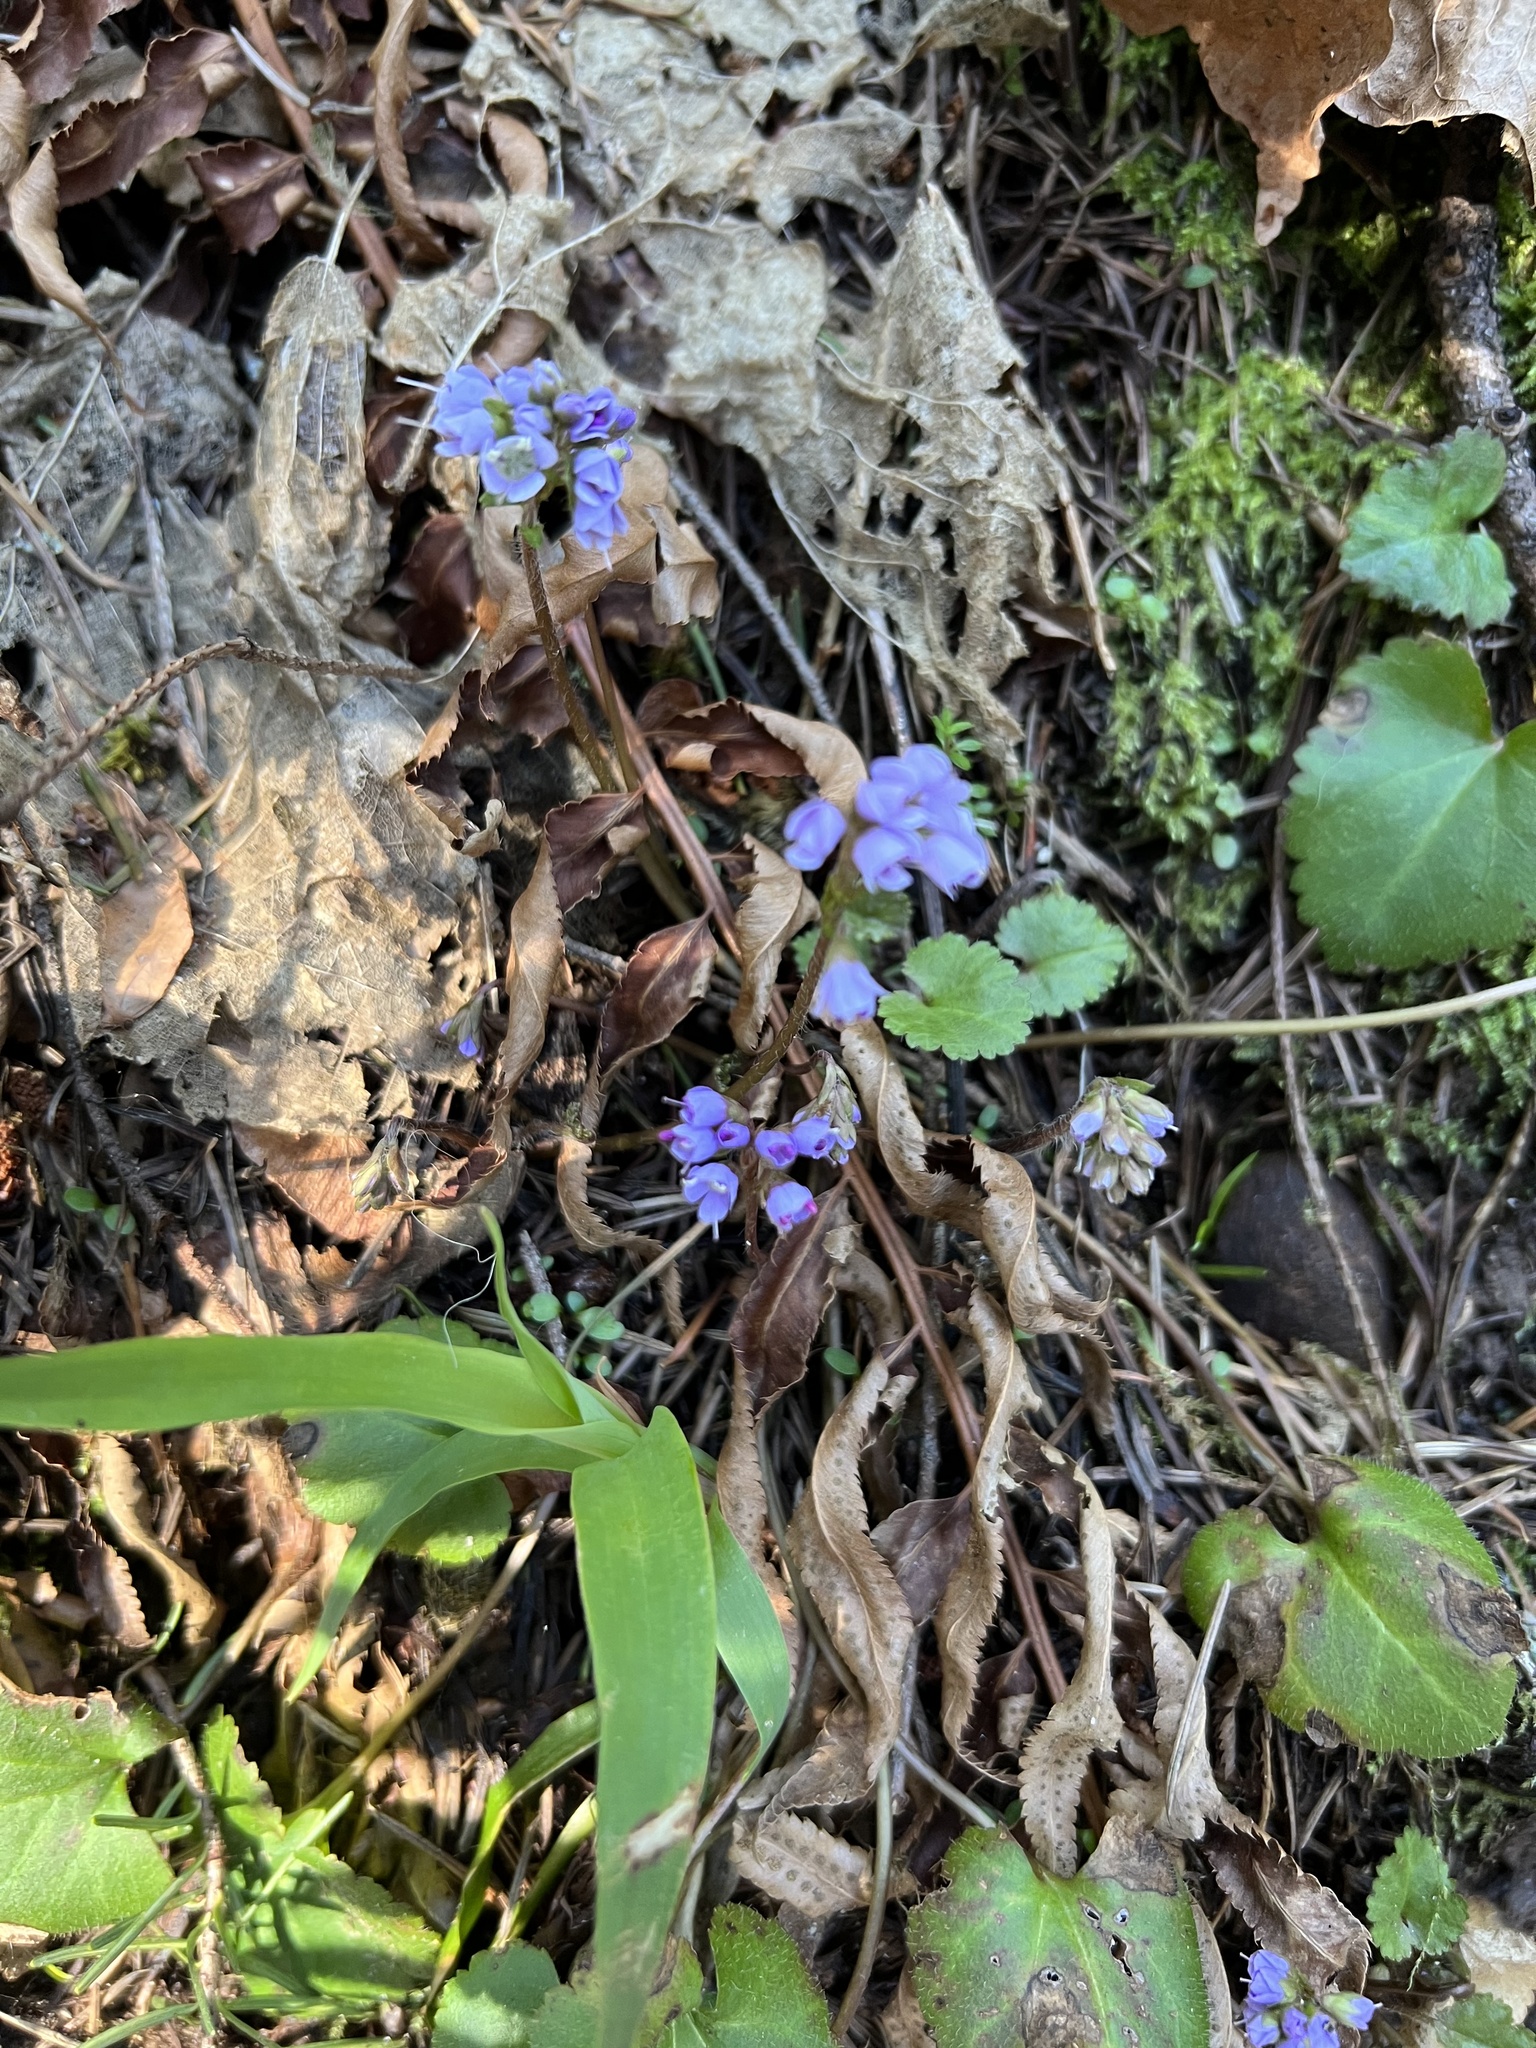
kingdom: Plantae
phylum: Tracheophyta
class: Magnoliopsida
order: Lamiales
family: Plantaginaceae
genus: Synthyris
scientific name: Synthyris reniformis
